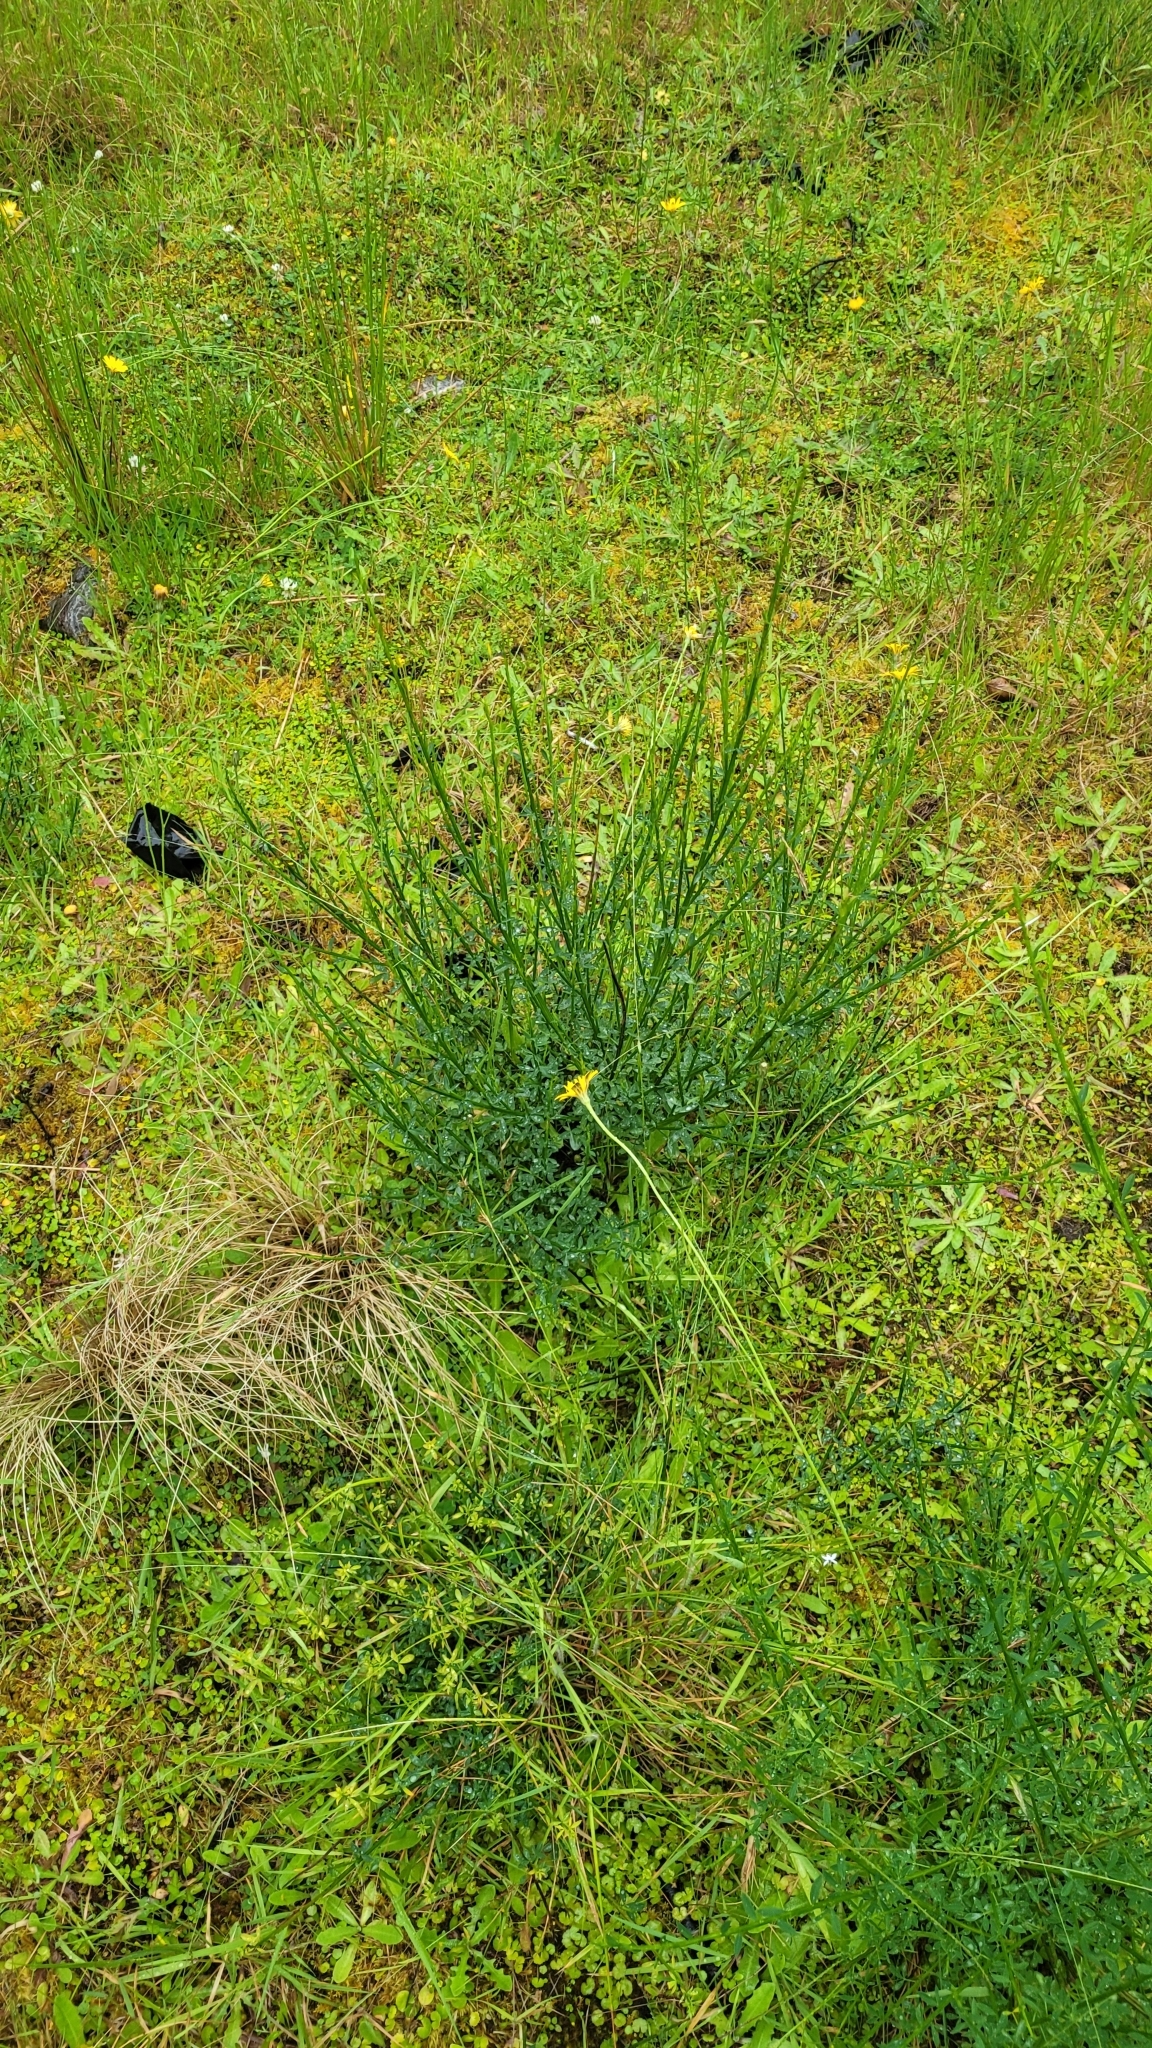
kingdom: Plantae
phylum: Tracheophyta
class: Magnoliopsida
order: Fabales
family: Fabaceae
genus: Cytisus
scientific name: Cytisus scoparius
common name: Scotch broom
